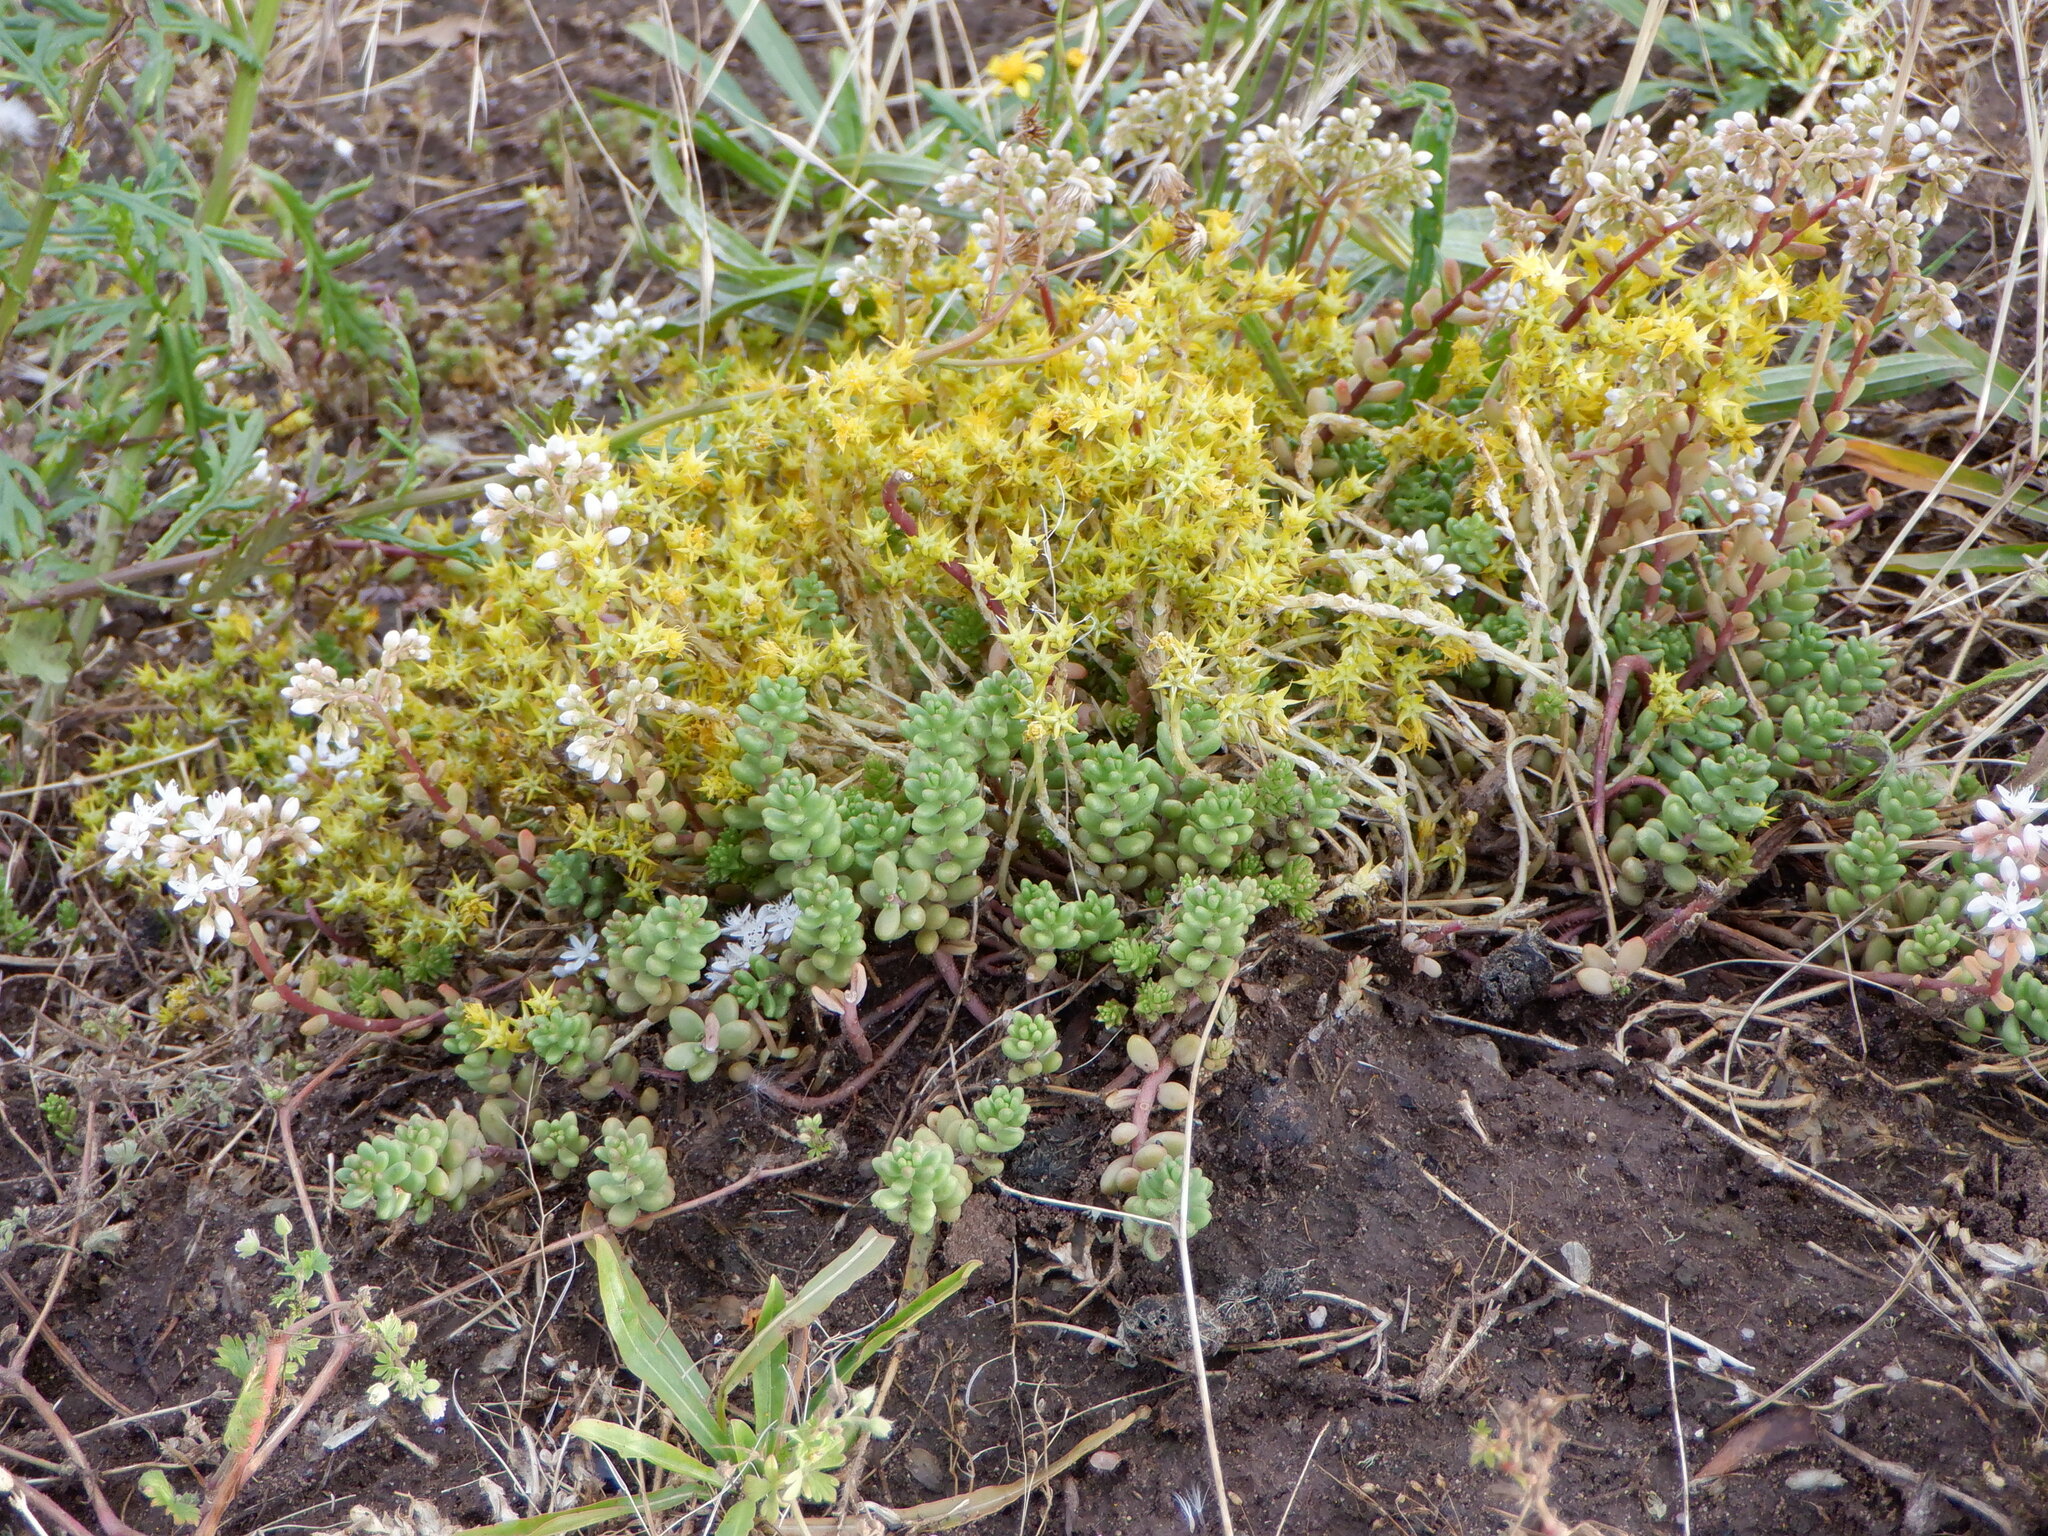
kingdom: Plantae
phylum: Tracheophyta
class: Magnoliopsida
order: Saxifragales
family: Crassulaceae
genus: Sedum
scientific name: Sedum acre
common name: Biting stonecrop
